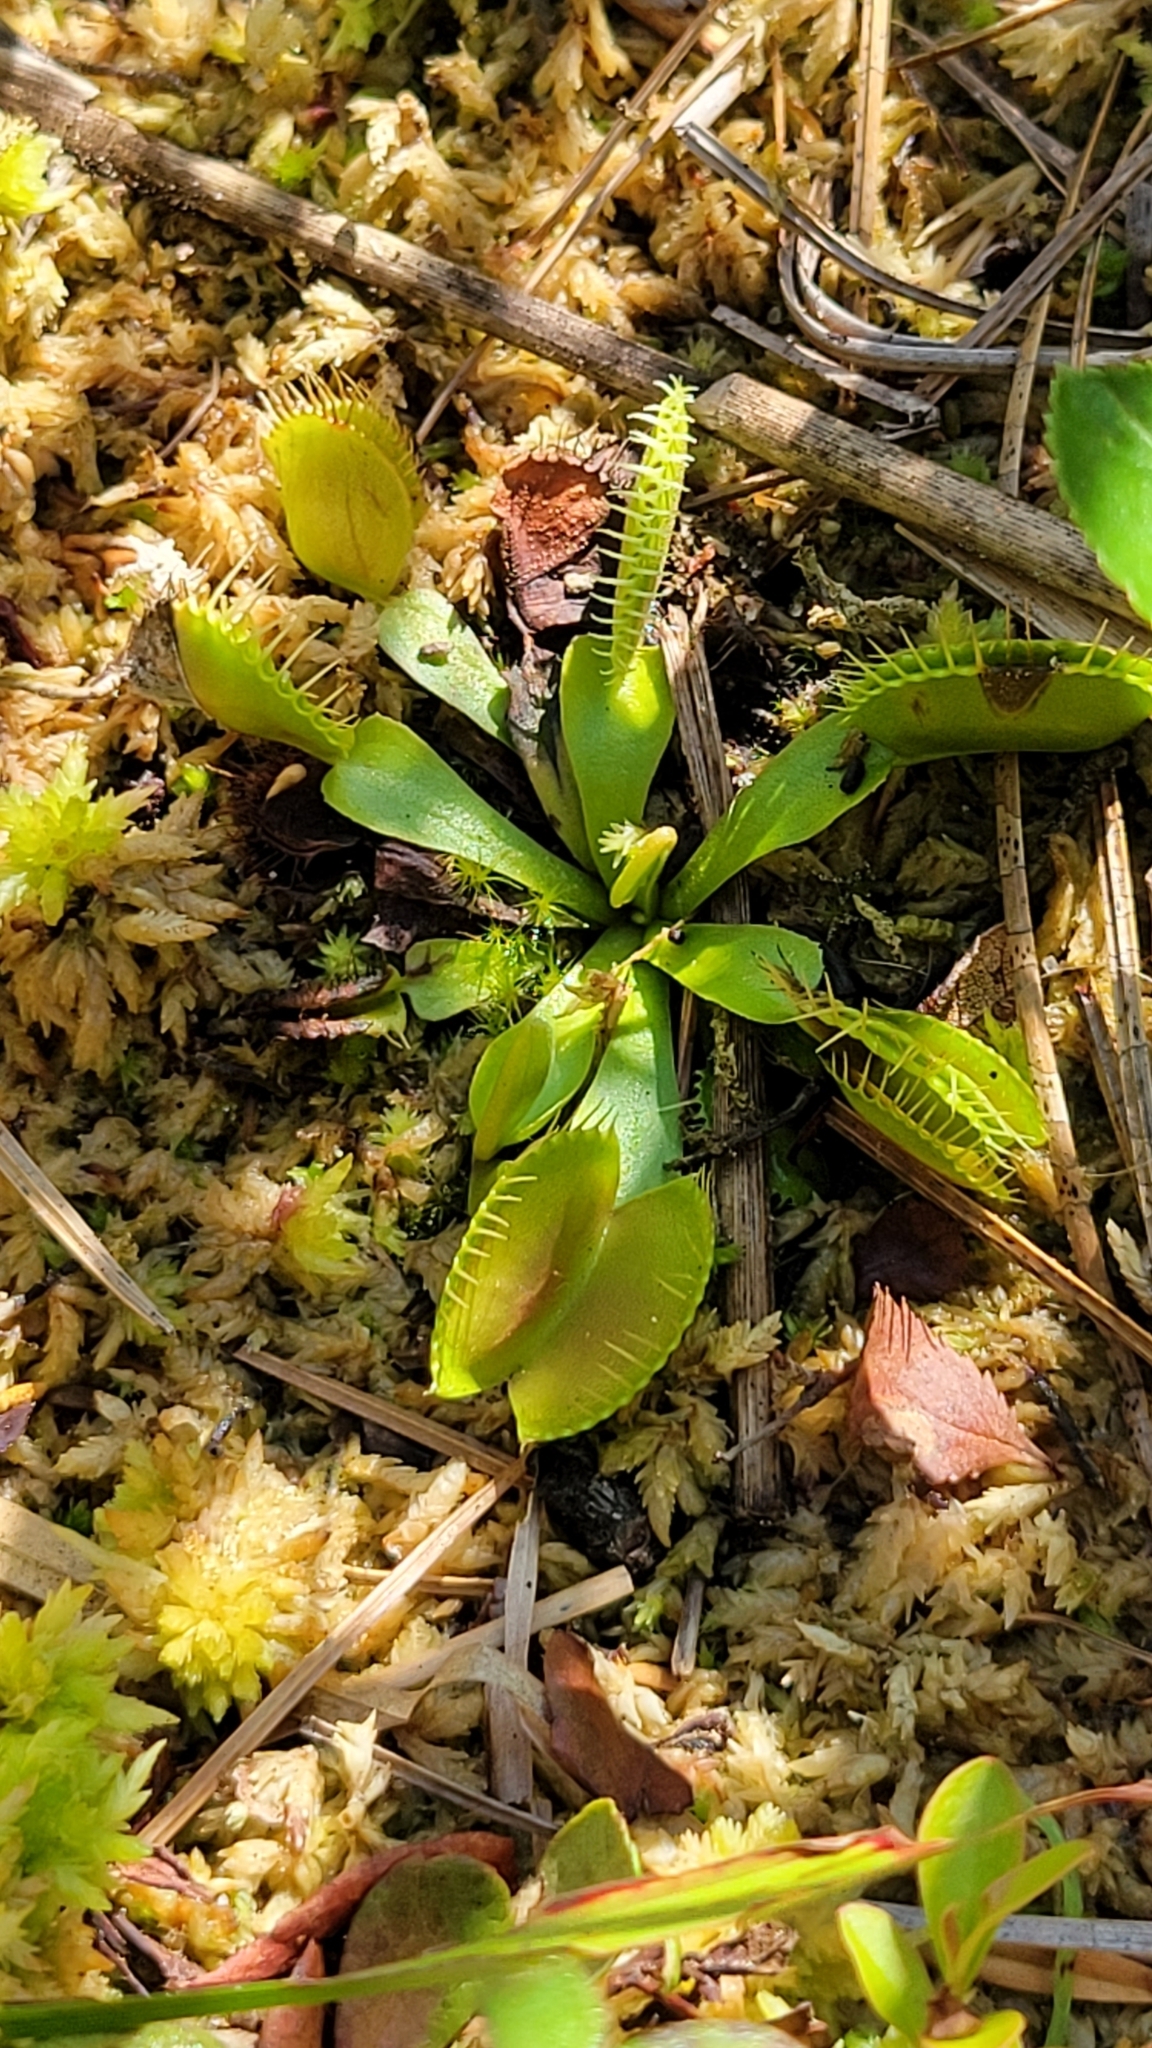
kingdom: Plantae
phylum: Tracheophyta
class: Magnoliopsida
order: Caryophyllales
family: Droseraceae
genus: Dionaea
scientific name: Dionaea muscipula
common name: Venus flytrap
